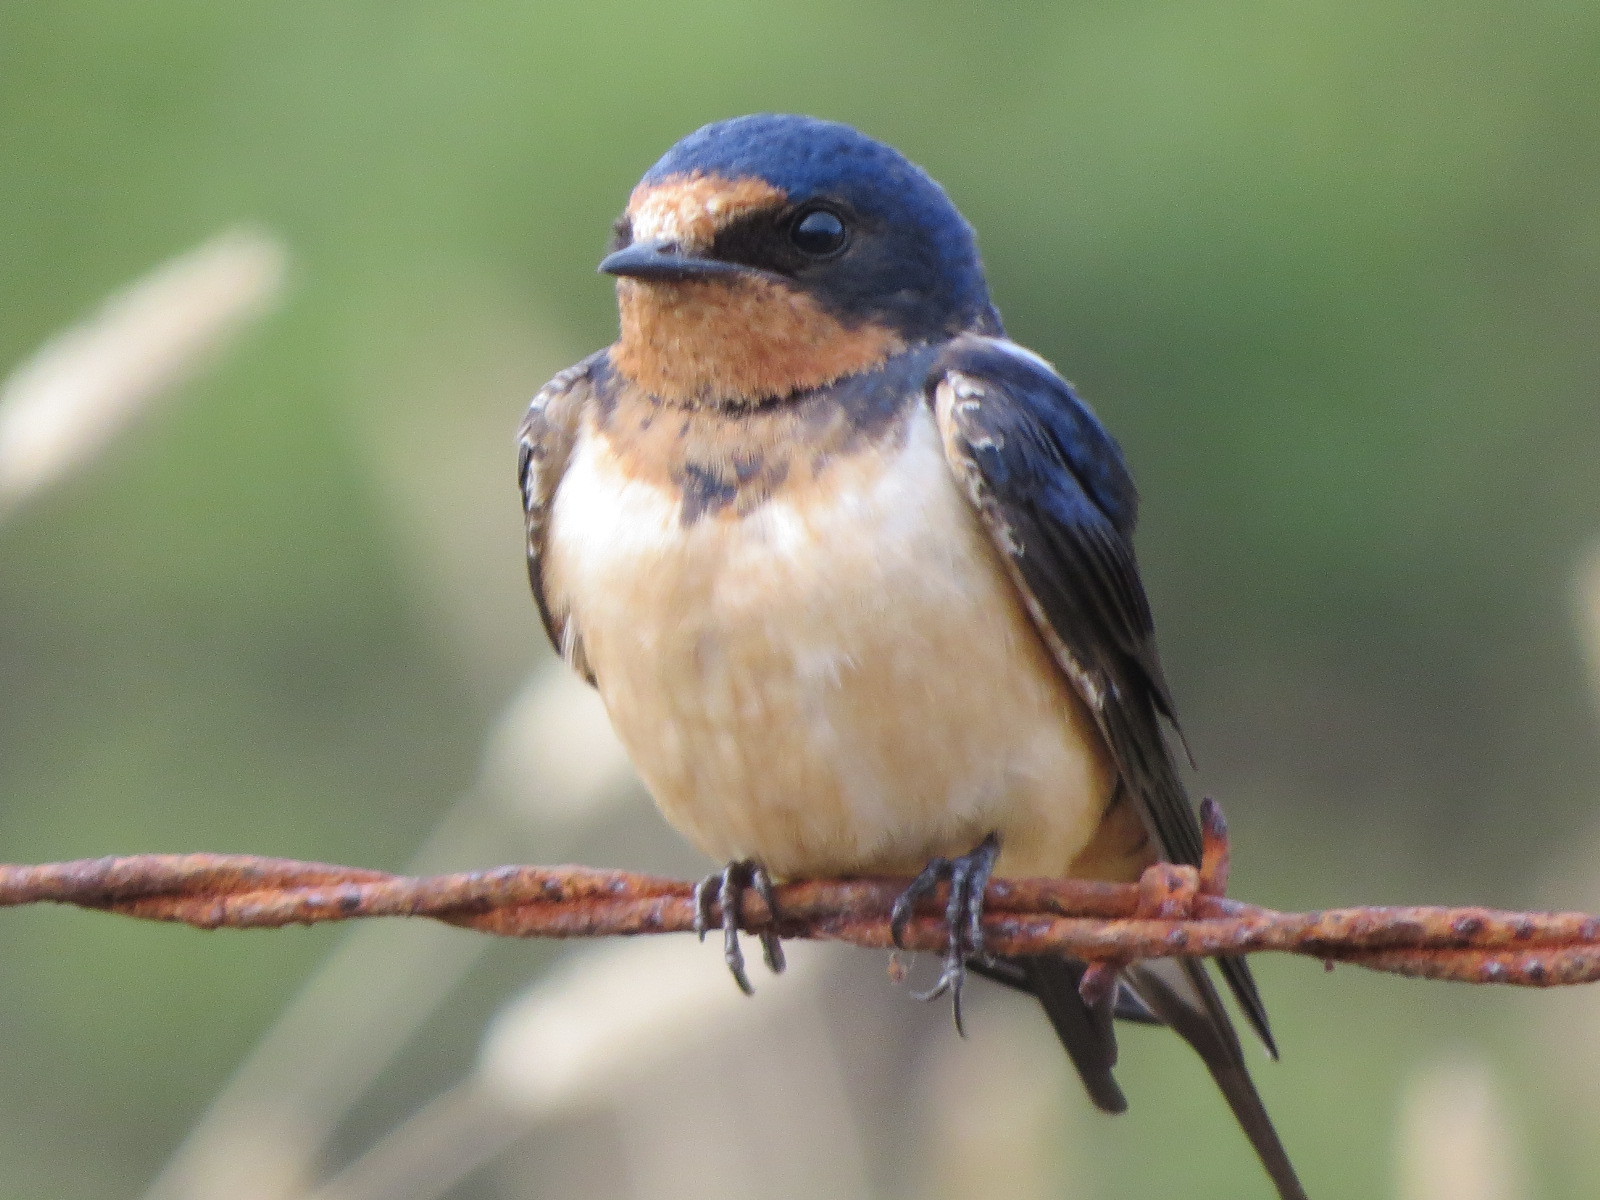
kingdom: Animalia
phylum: Chordata
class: Aves
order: Passeriformes
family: Hirundinidae
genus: Hirundo
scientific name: Hirundo rustica
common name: Barn swallow
